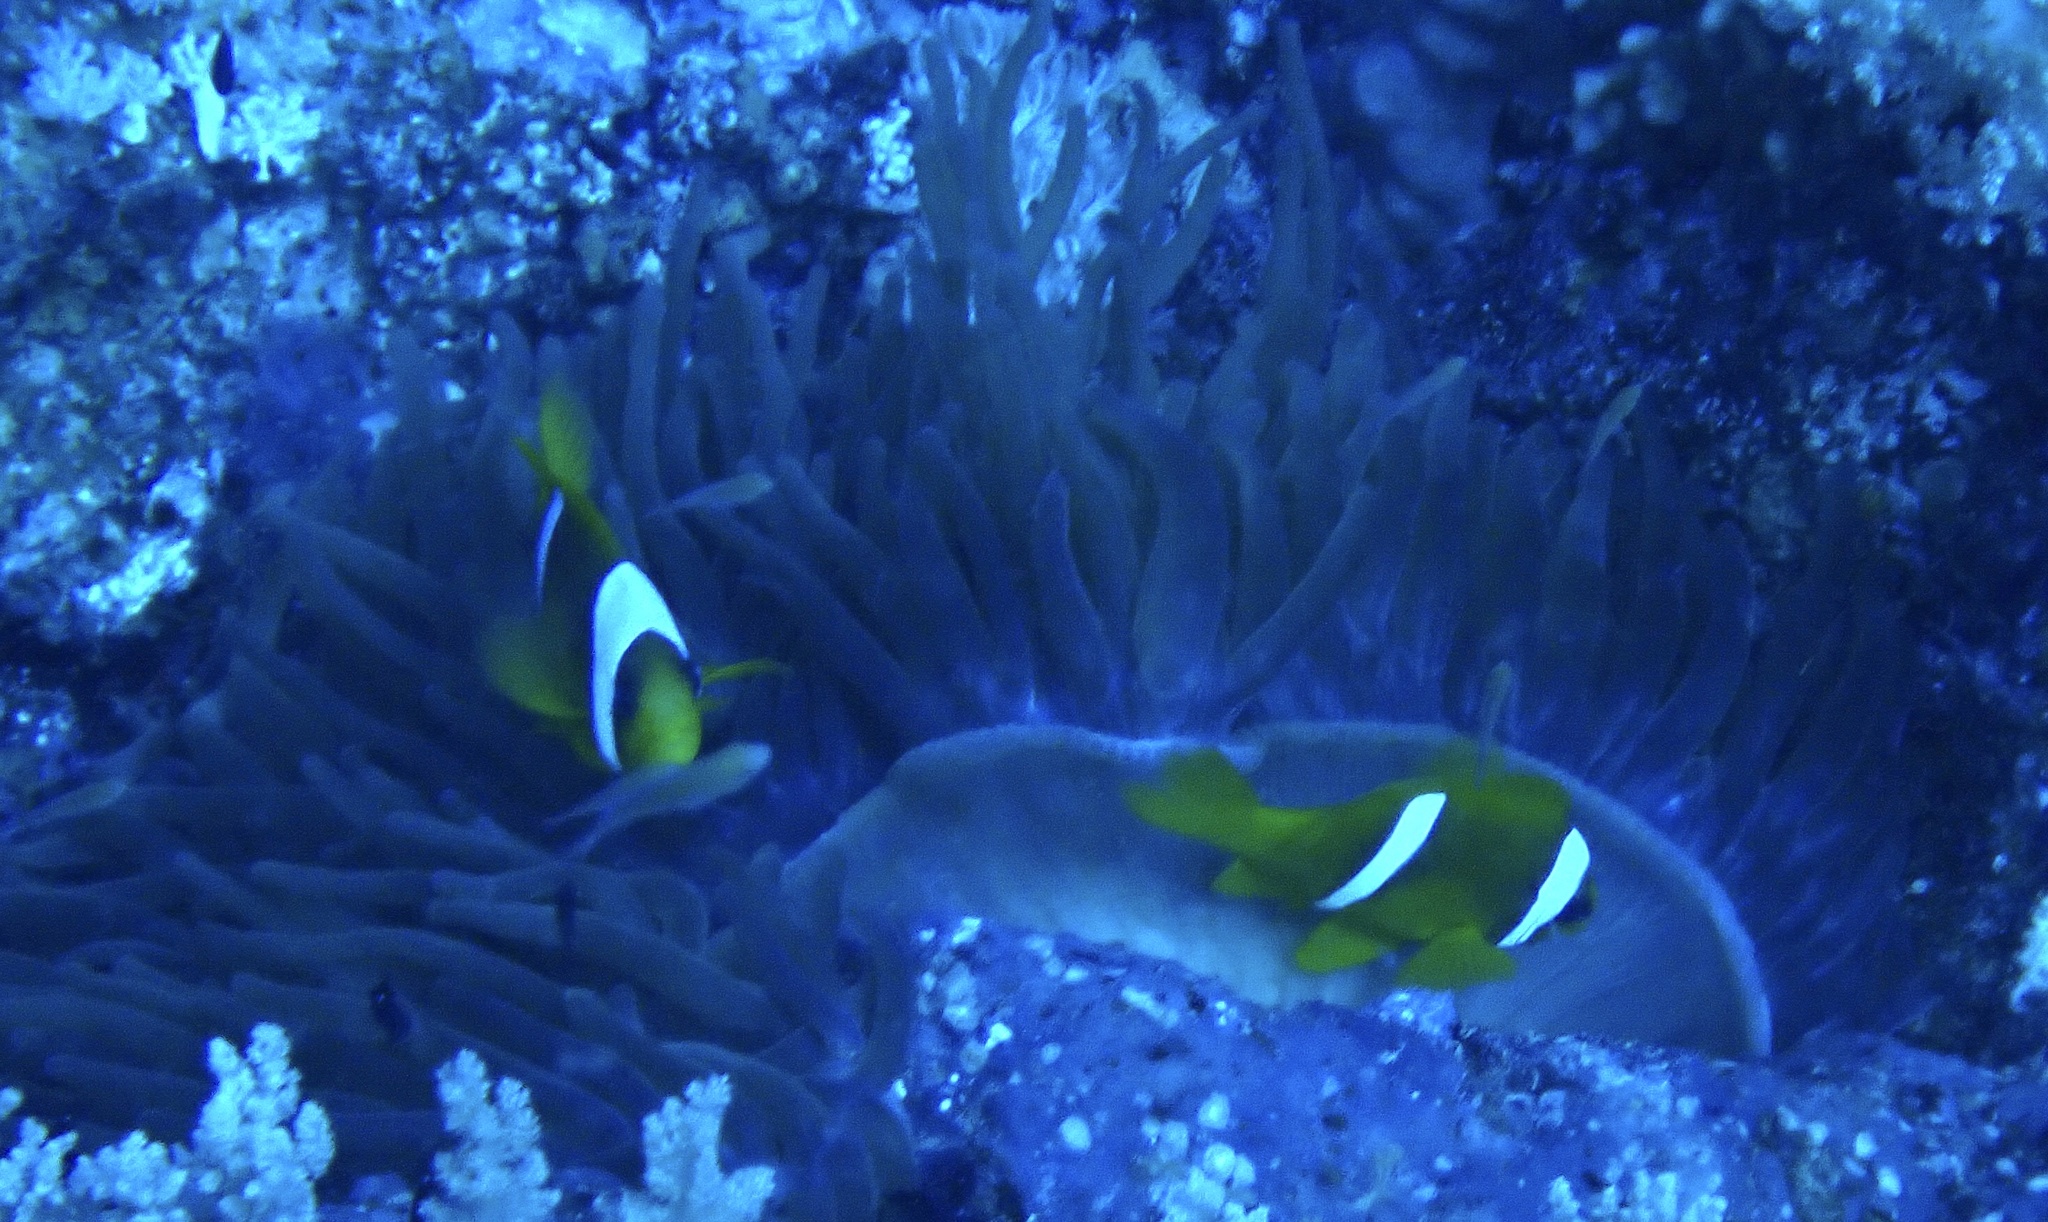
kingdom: Animalia
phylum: Chordata
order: Perciformes
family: Pomacentridae
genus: Amphiprion
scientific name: Amphiprion bicinctus
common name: Two-banded anemonefish
